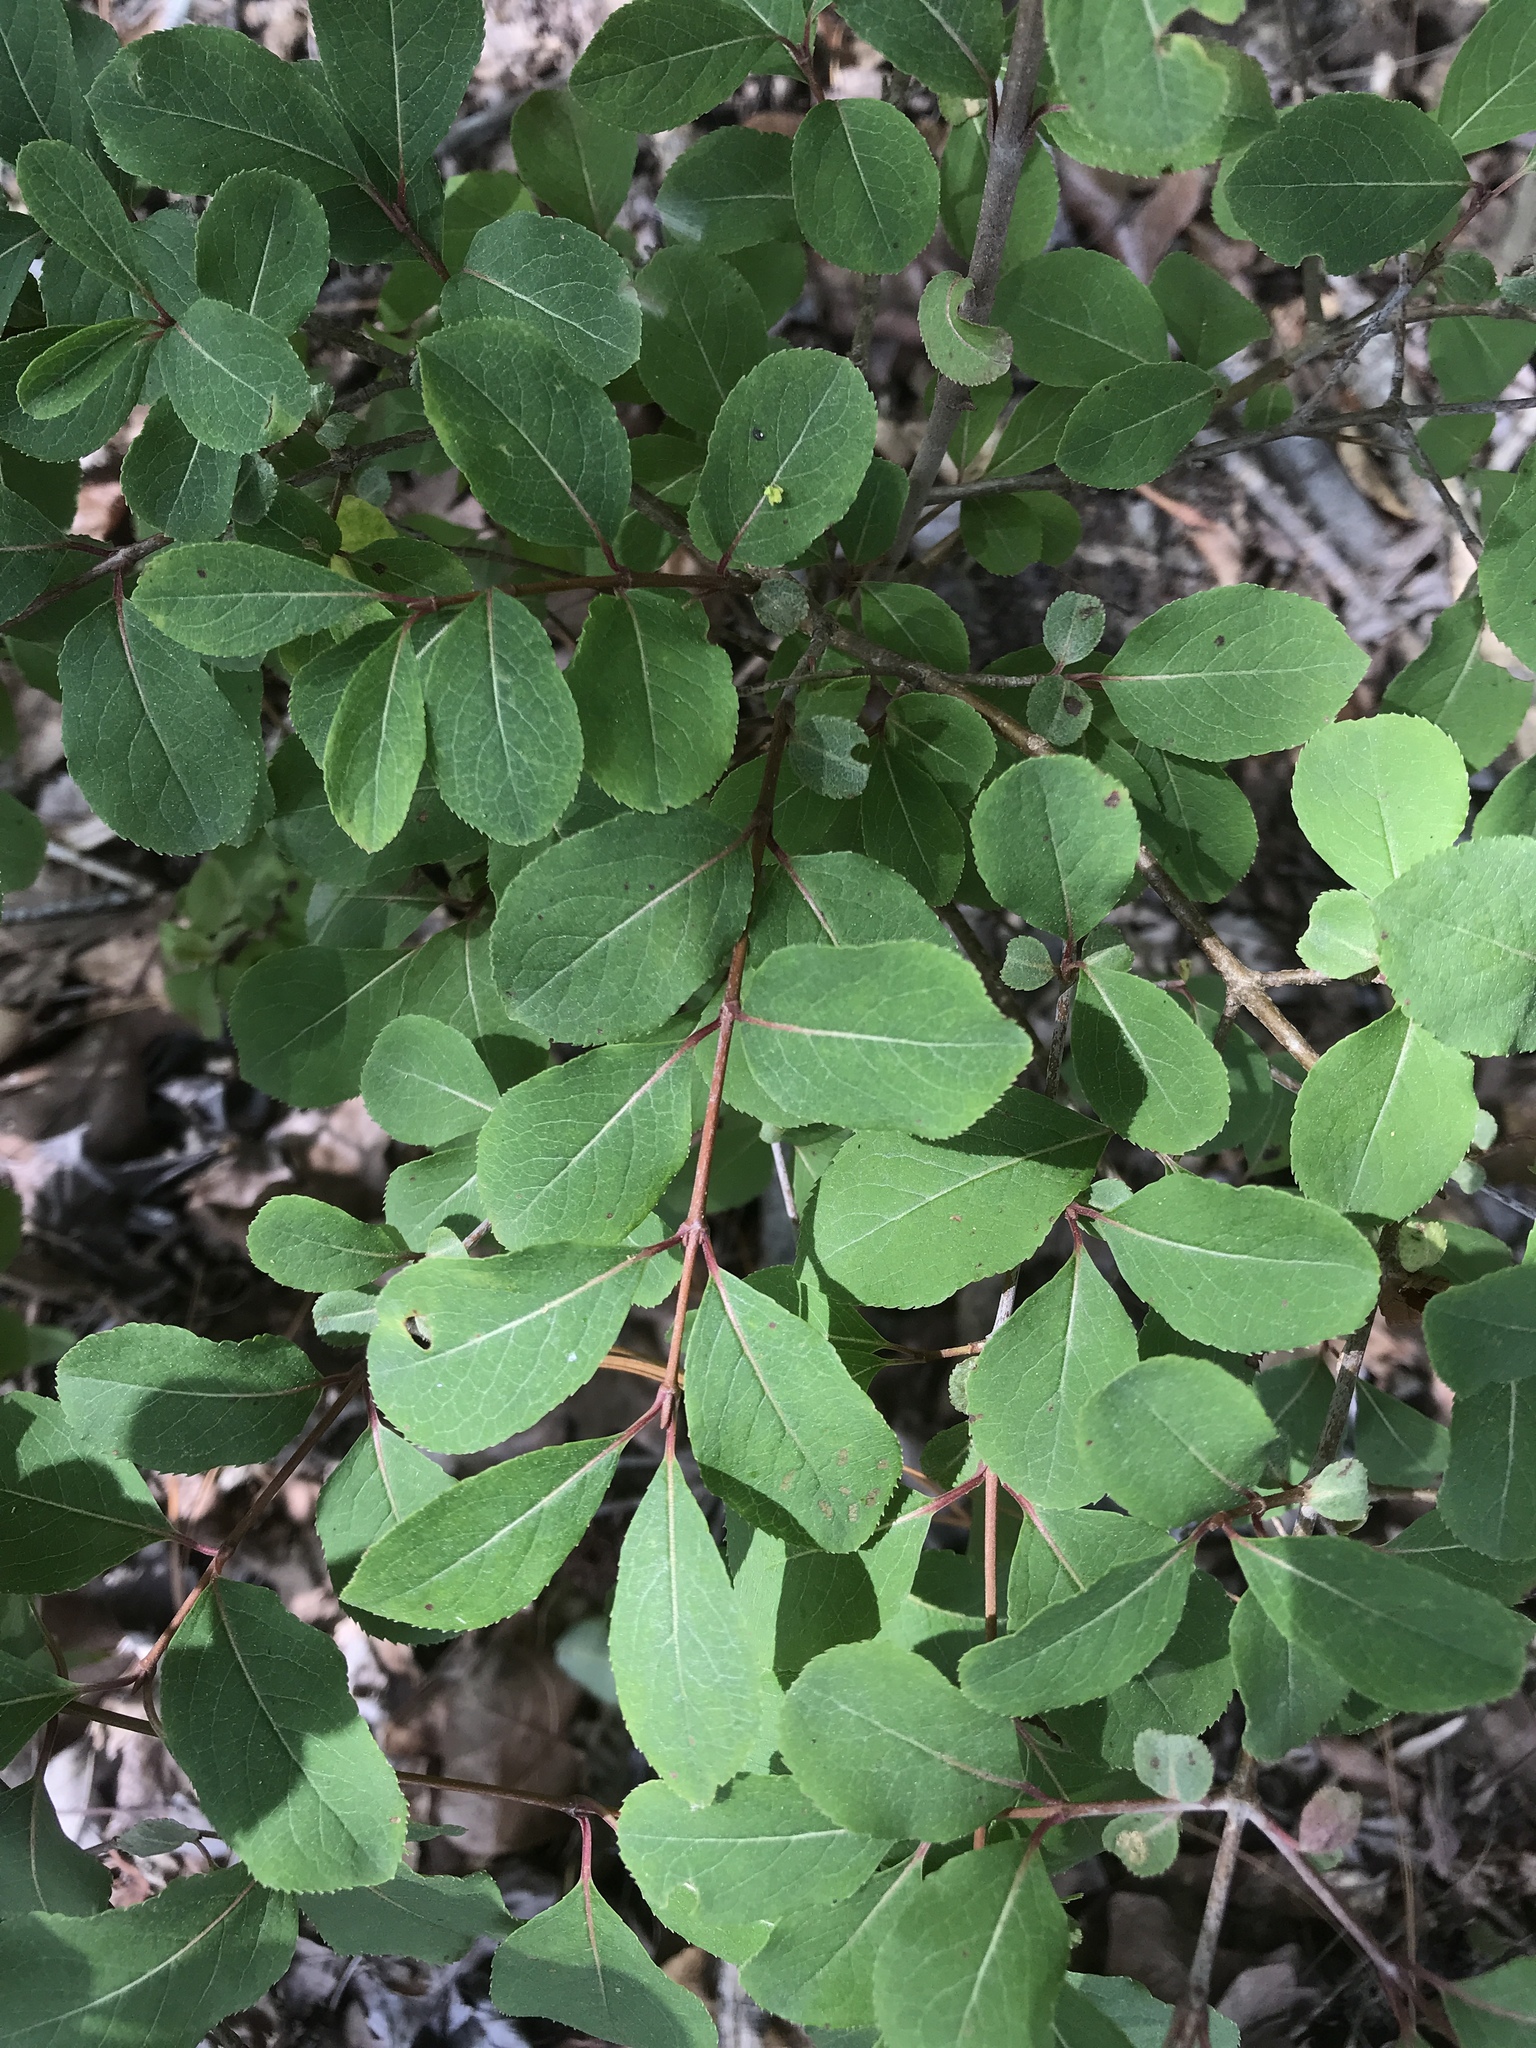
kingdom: Plantae
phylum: Tracheophyta
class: Magnoliopsida
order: Dipsacales
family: Viburnaceae
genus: Viburnum
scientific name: Viburnum prunifolium
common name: Black haw
